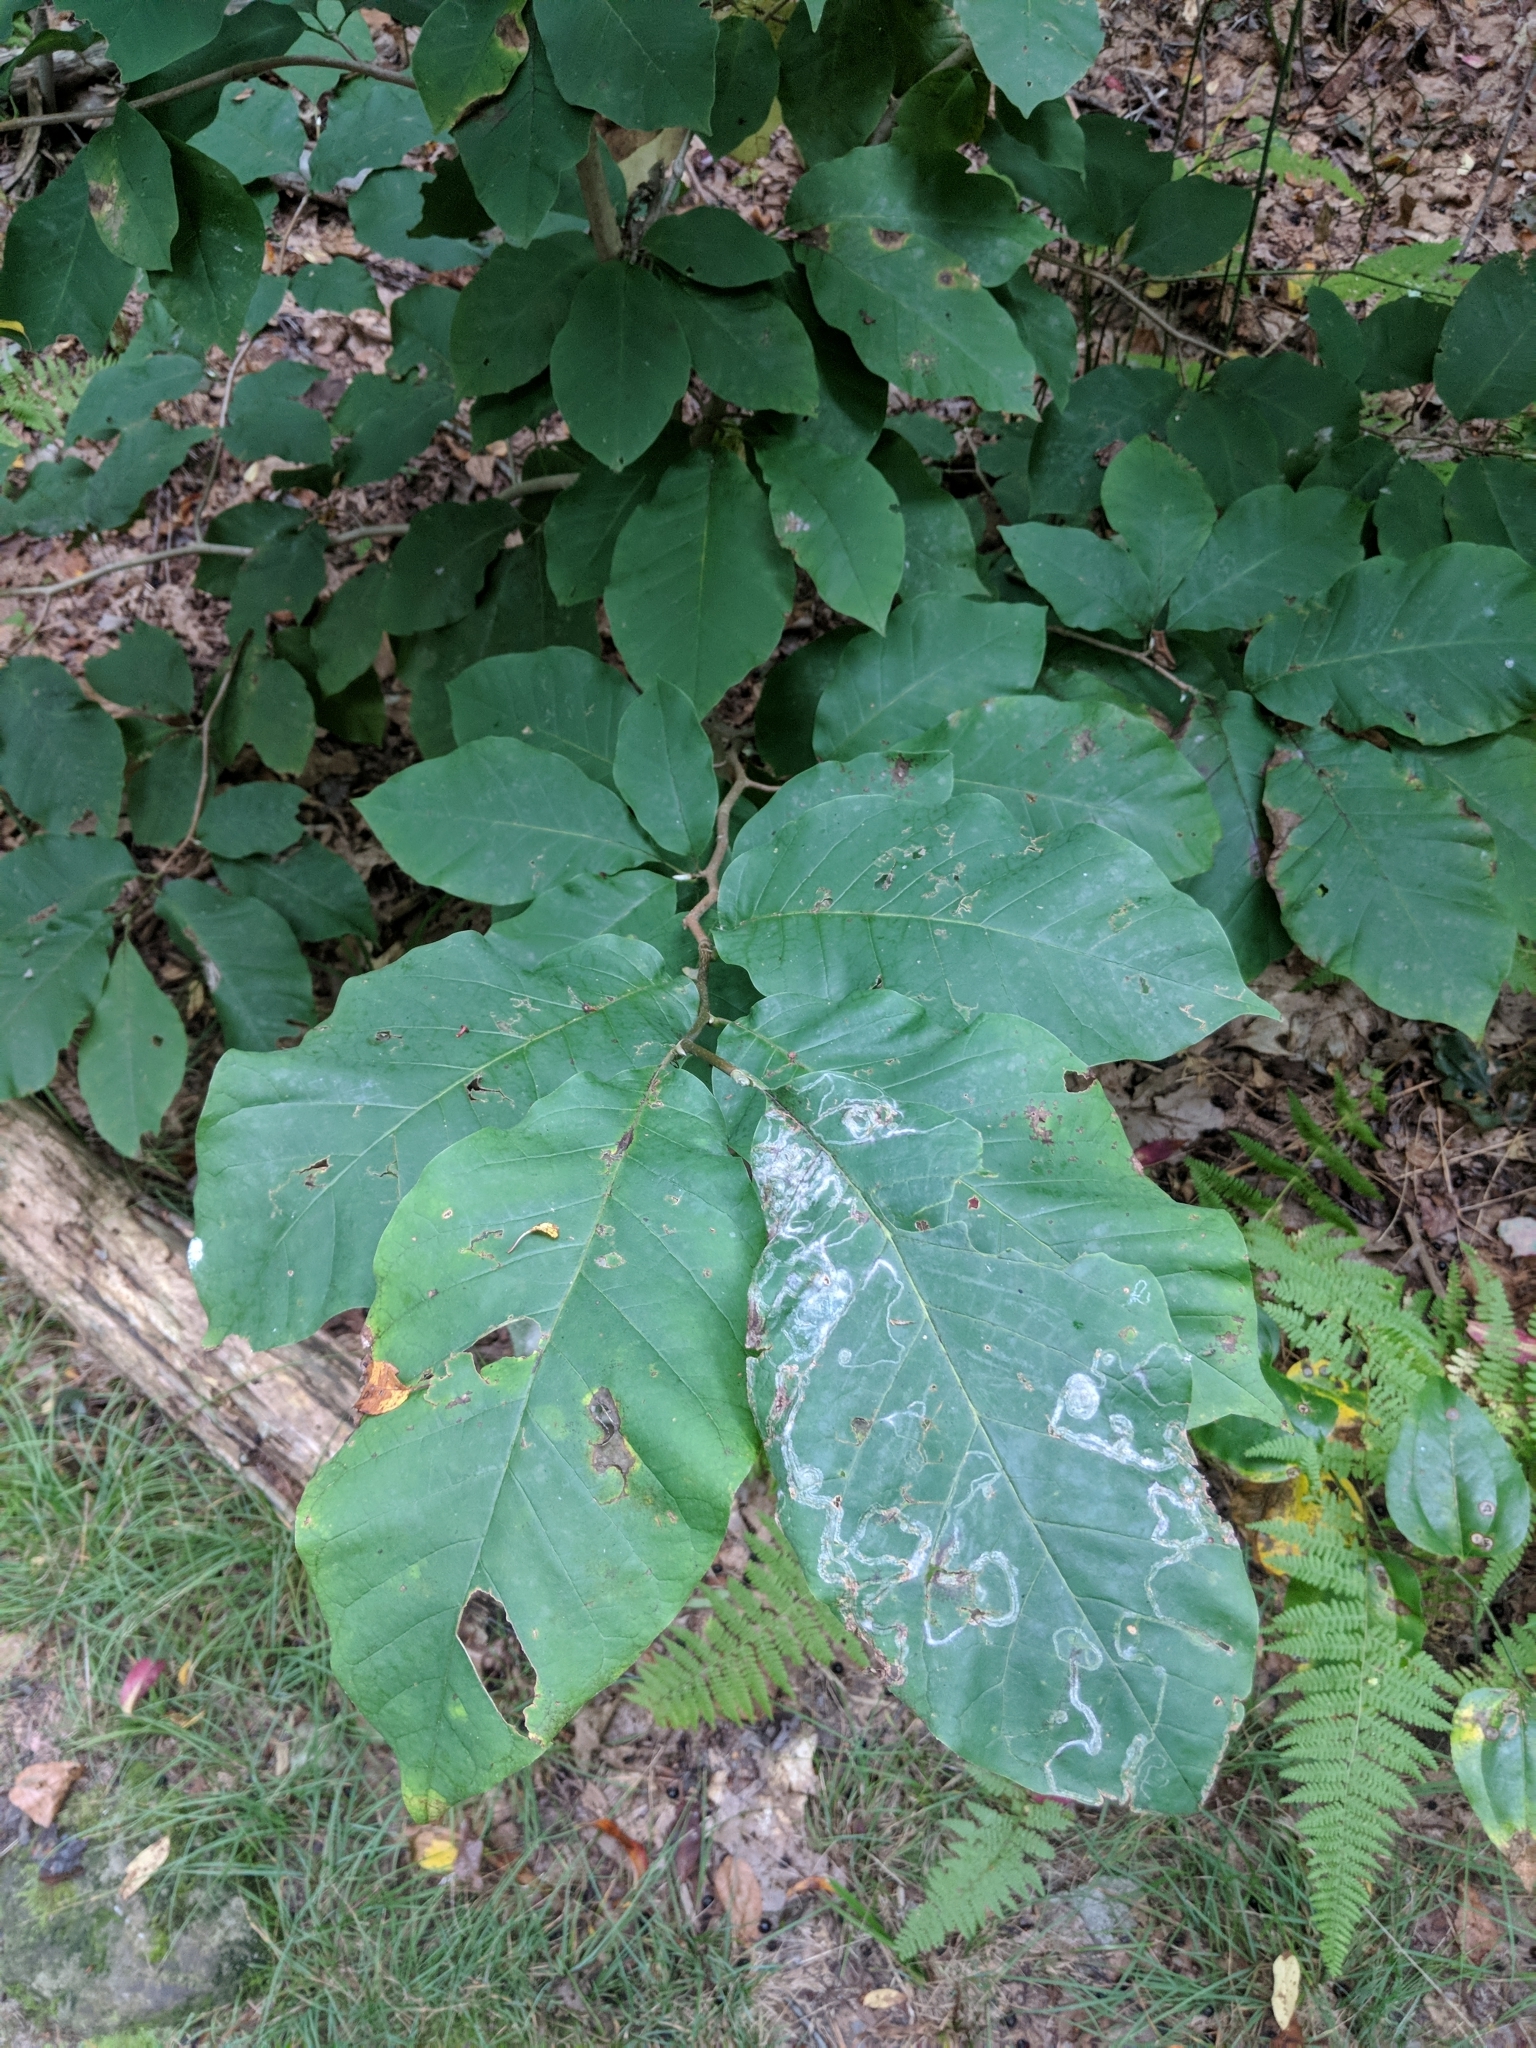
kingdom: Plantae
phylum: Tracheophyta
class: Magnoliopsida
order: Magnoliales
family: Magnoliaceae
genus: Magnolia
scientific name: Magnolia acuminata
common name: Cucumber magnolia
